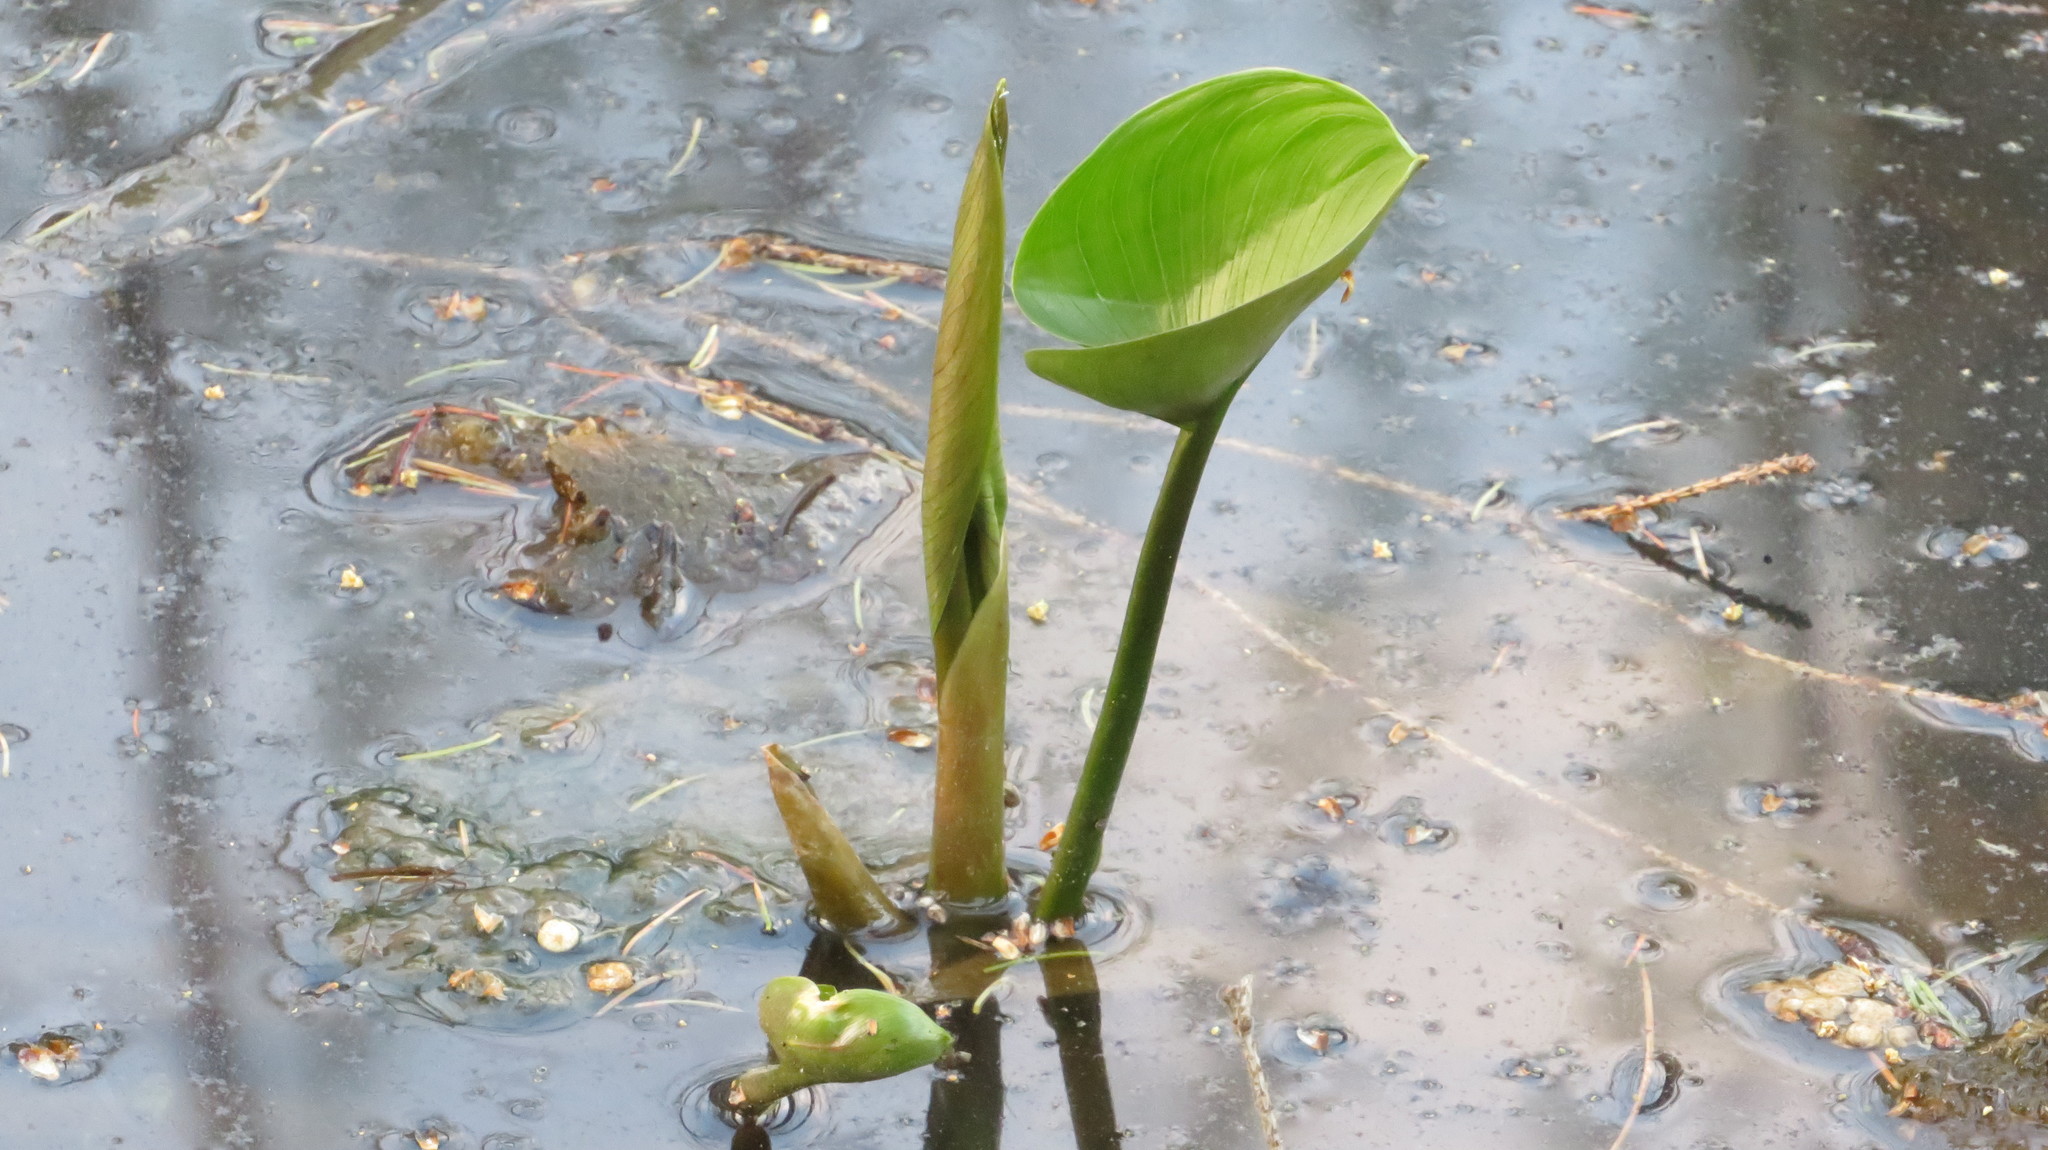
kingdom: Plantae
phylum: Tracheophyta
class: Liliopsida
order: Alismatales
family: Araceae
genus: Calla
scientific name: Calla palustris
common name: Bog arum
